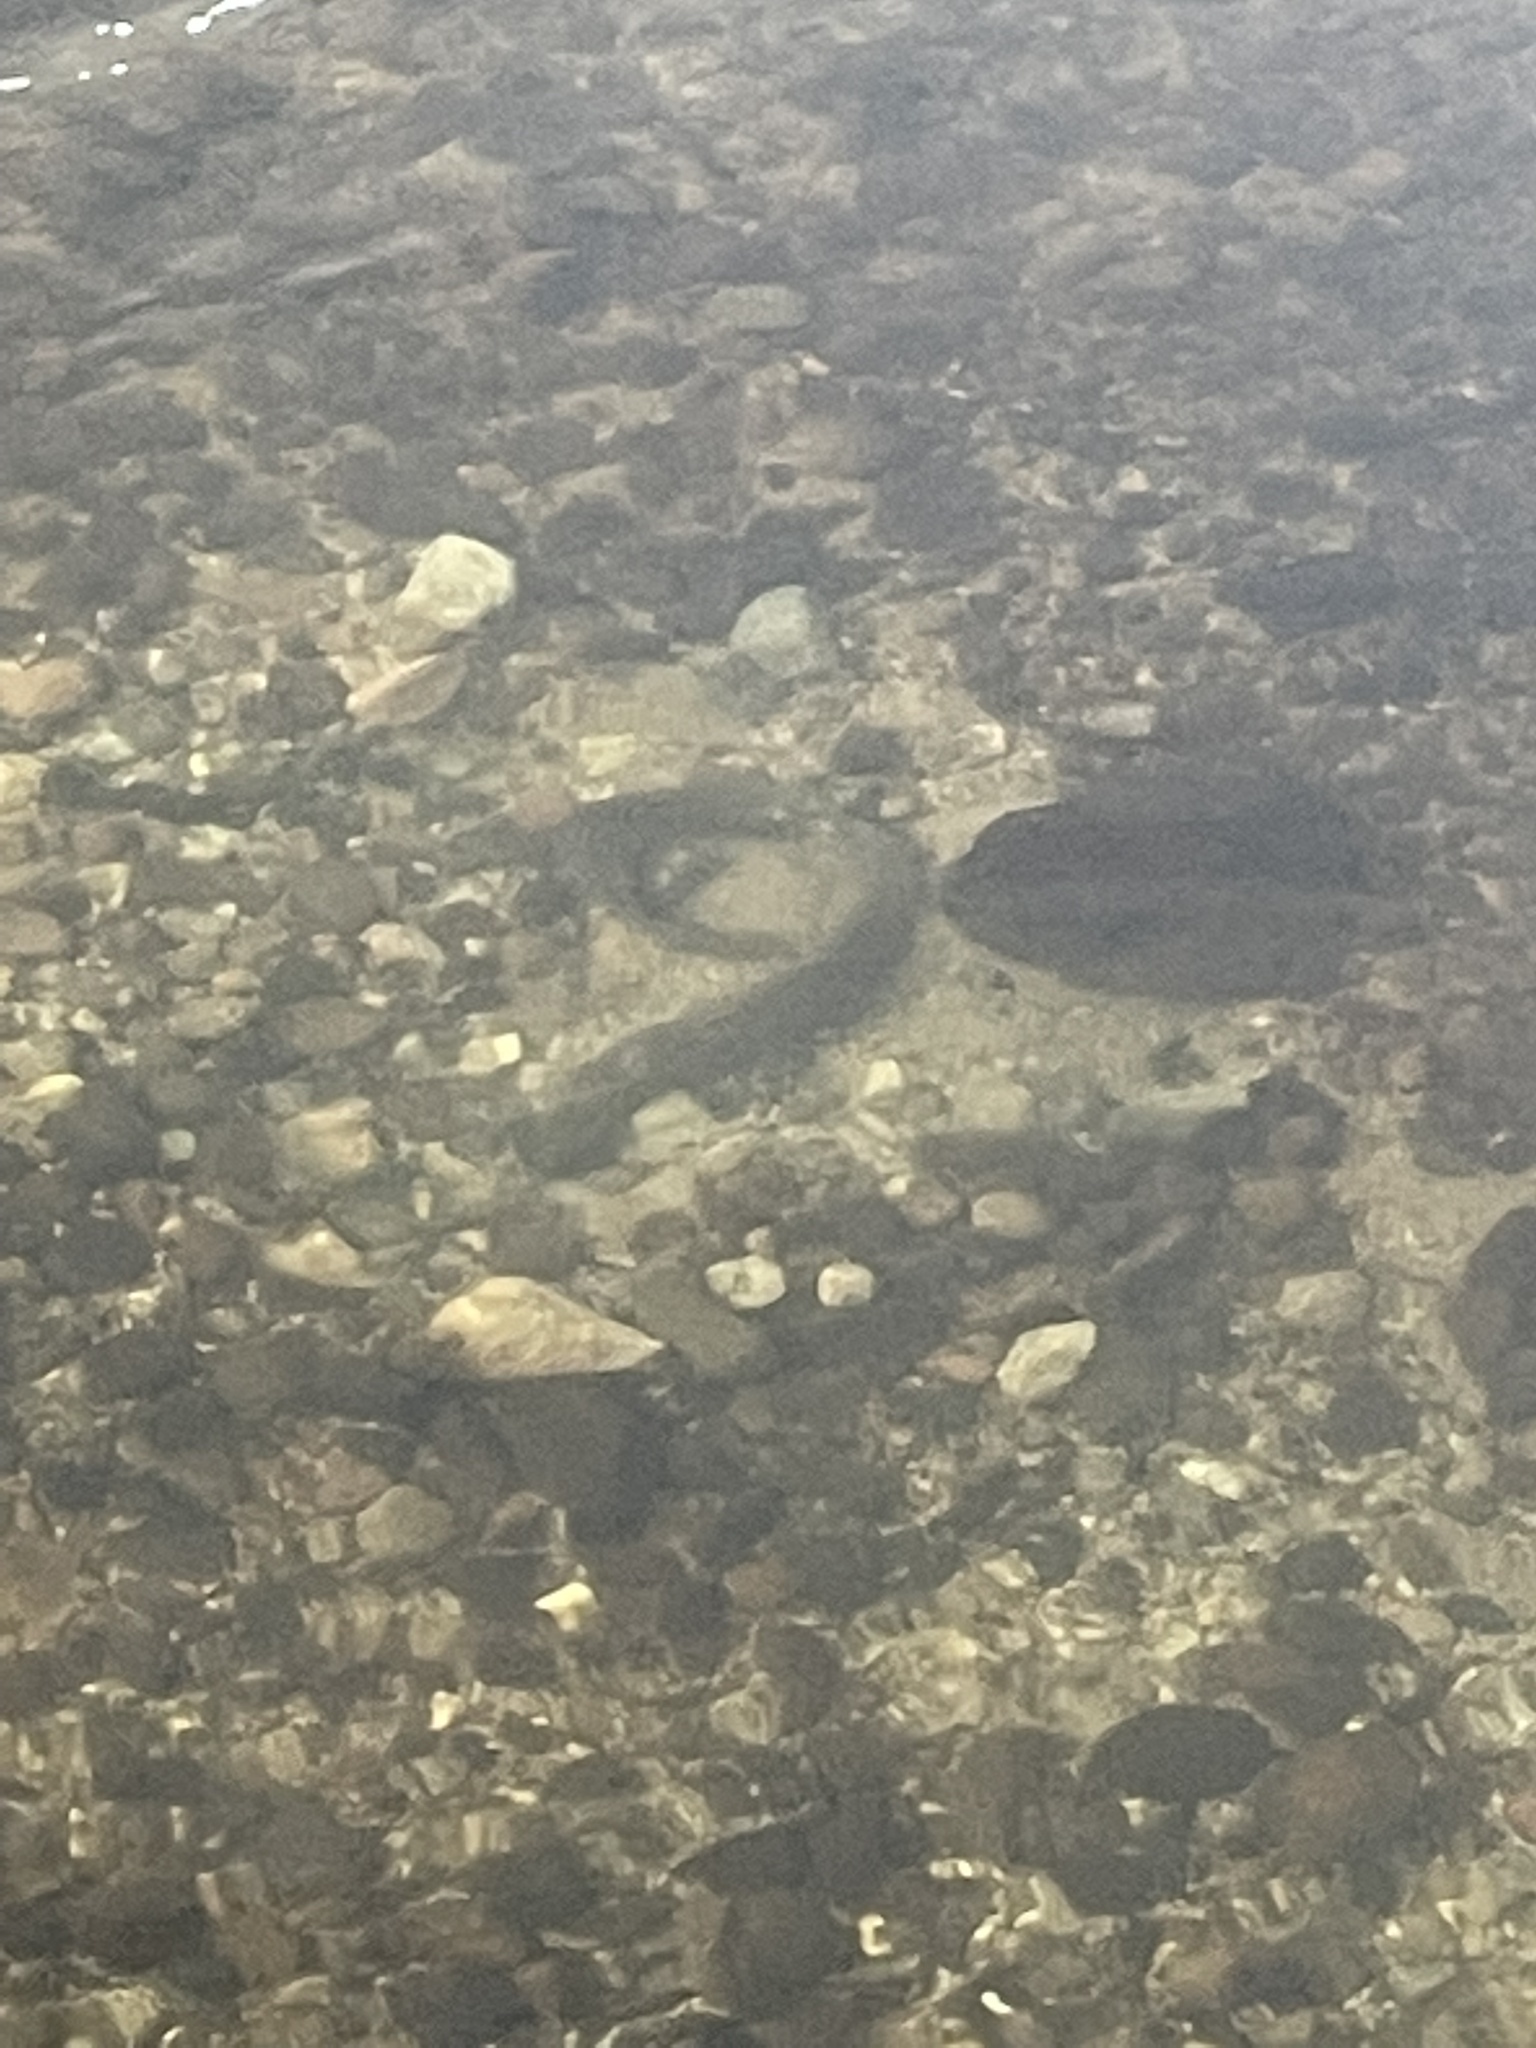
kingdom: Animalia
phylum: Chordata
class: Petromyzonti
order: Petromyzontiformes
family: Petromyzontidae
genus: Entosphenus
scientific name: Entosphenus tridentatus
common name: Pacific lamprey
